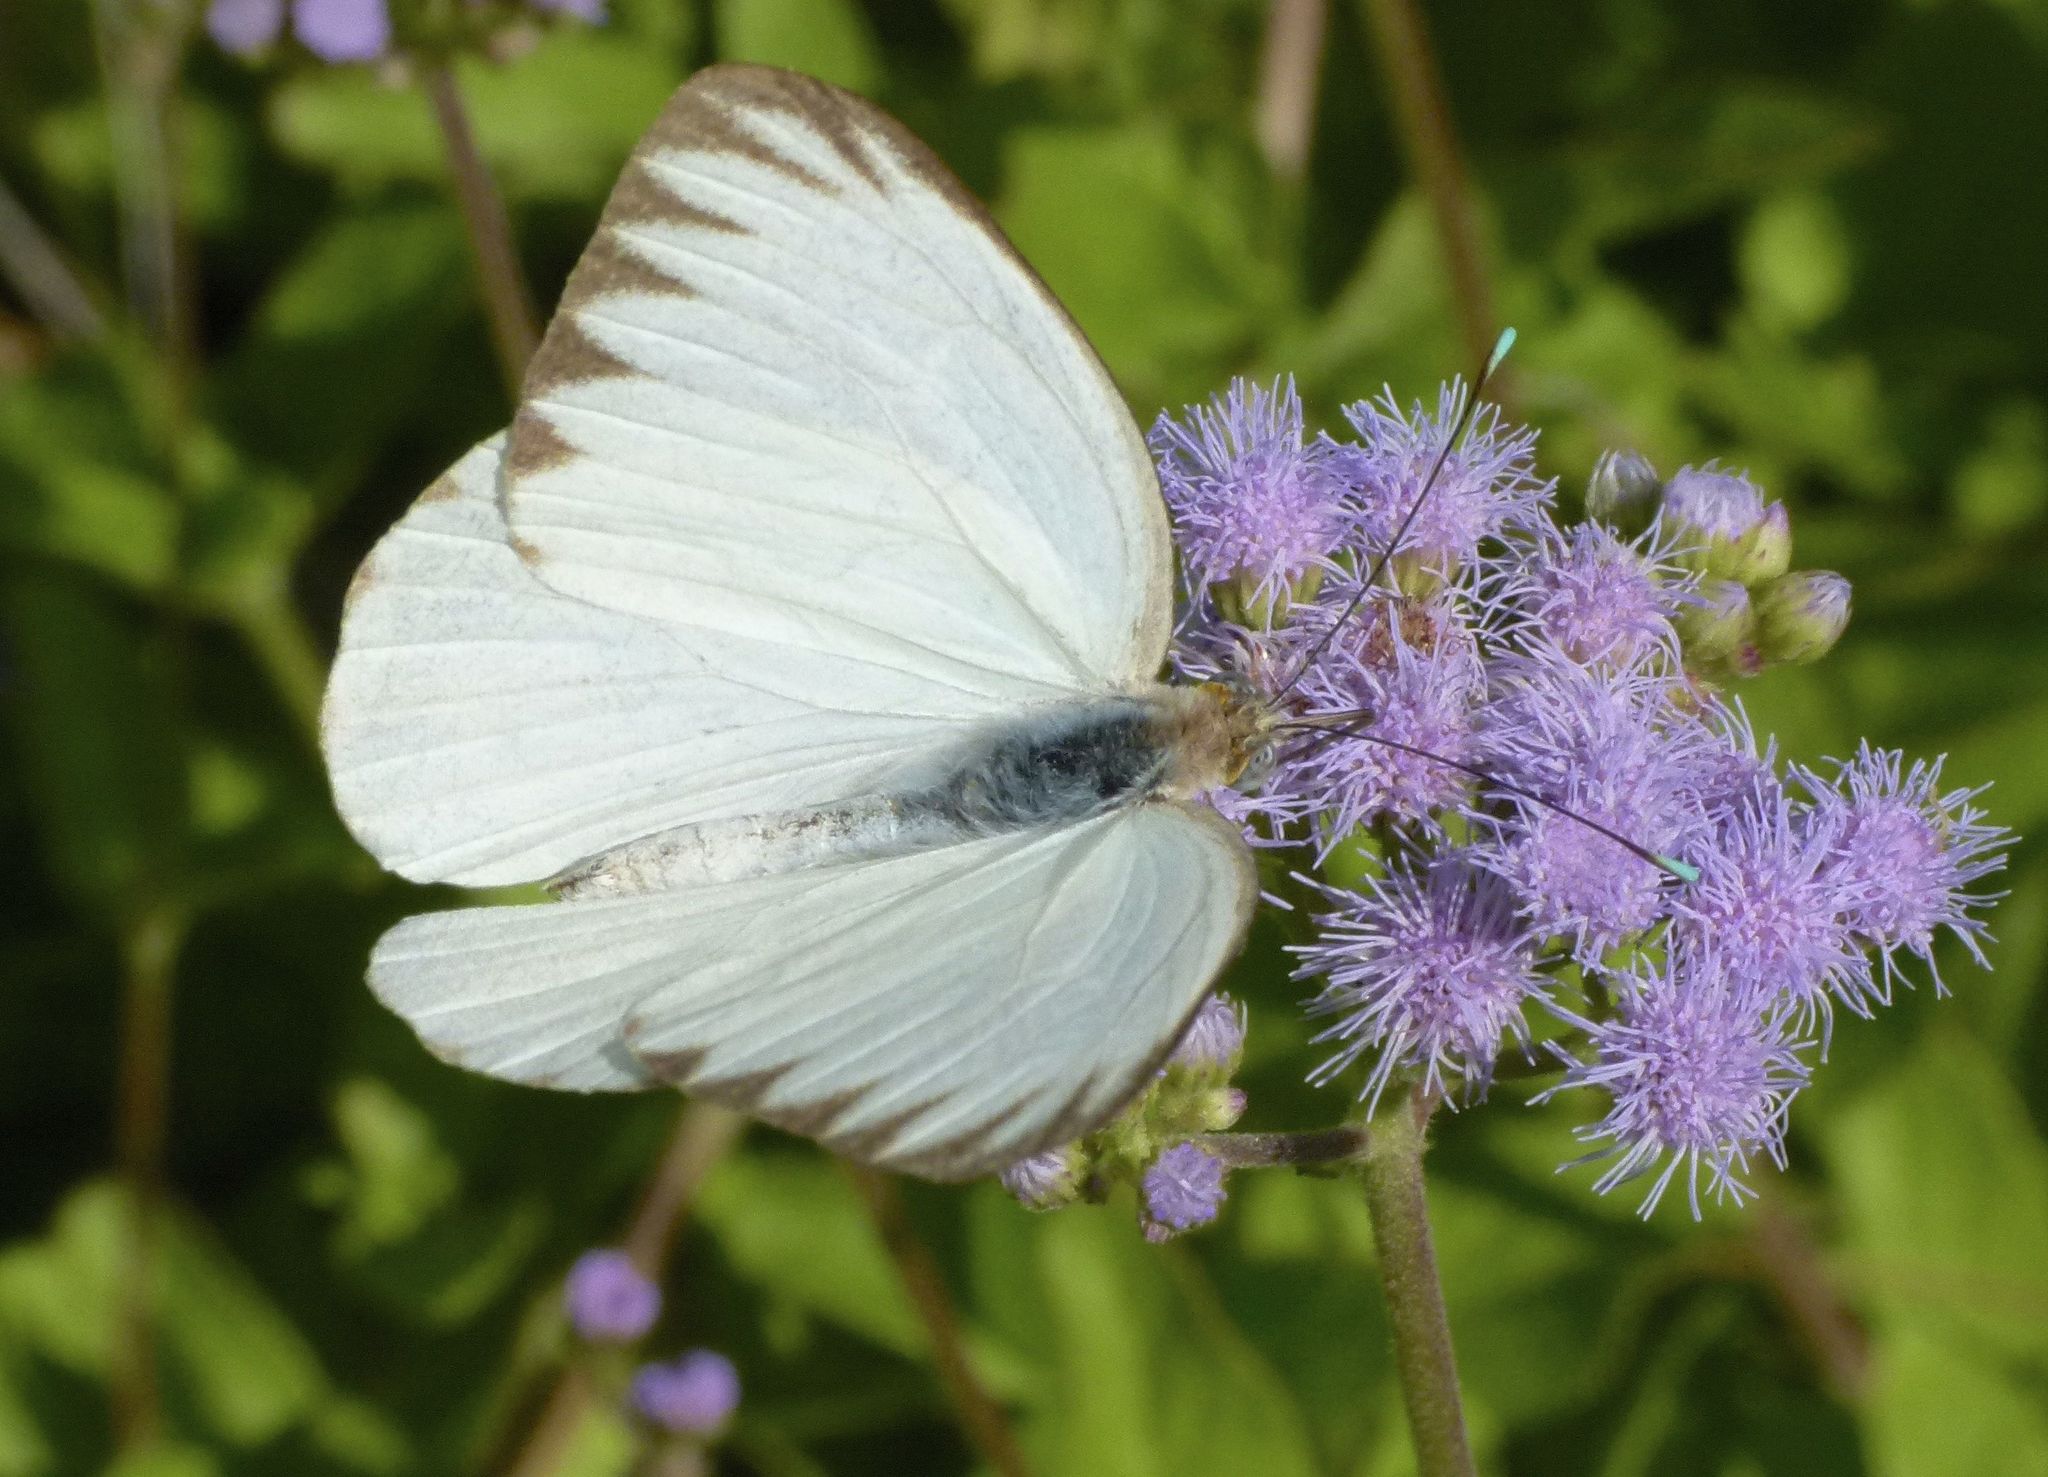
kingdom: Animalia
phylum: Arthropoda
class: Insecta
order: Lepidoptera
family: Pieridae
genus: Ascia
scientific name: Ascia monuste
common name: Great southern white
